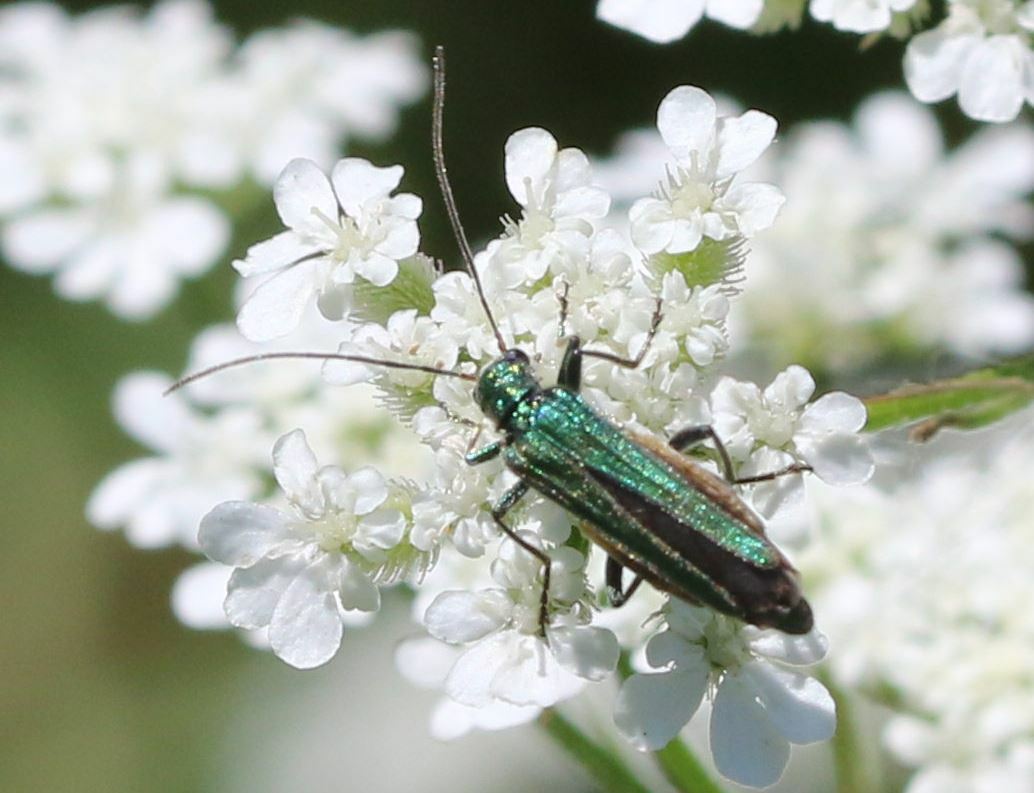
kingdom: Animalia
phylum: Arthropoda
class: Insecta
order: Coleoptera
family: Oedemeridae
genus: Oedemera
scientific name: Oedemera nobilis
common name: Swollen-thighed beetle
